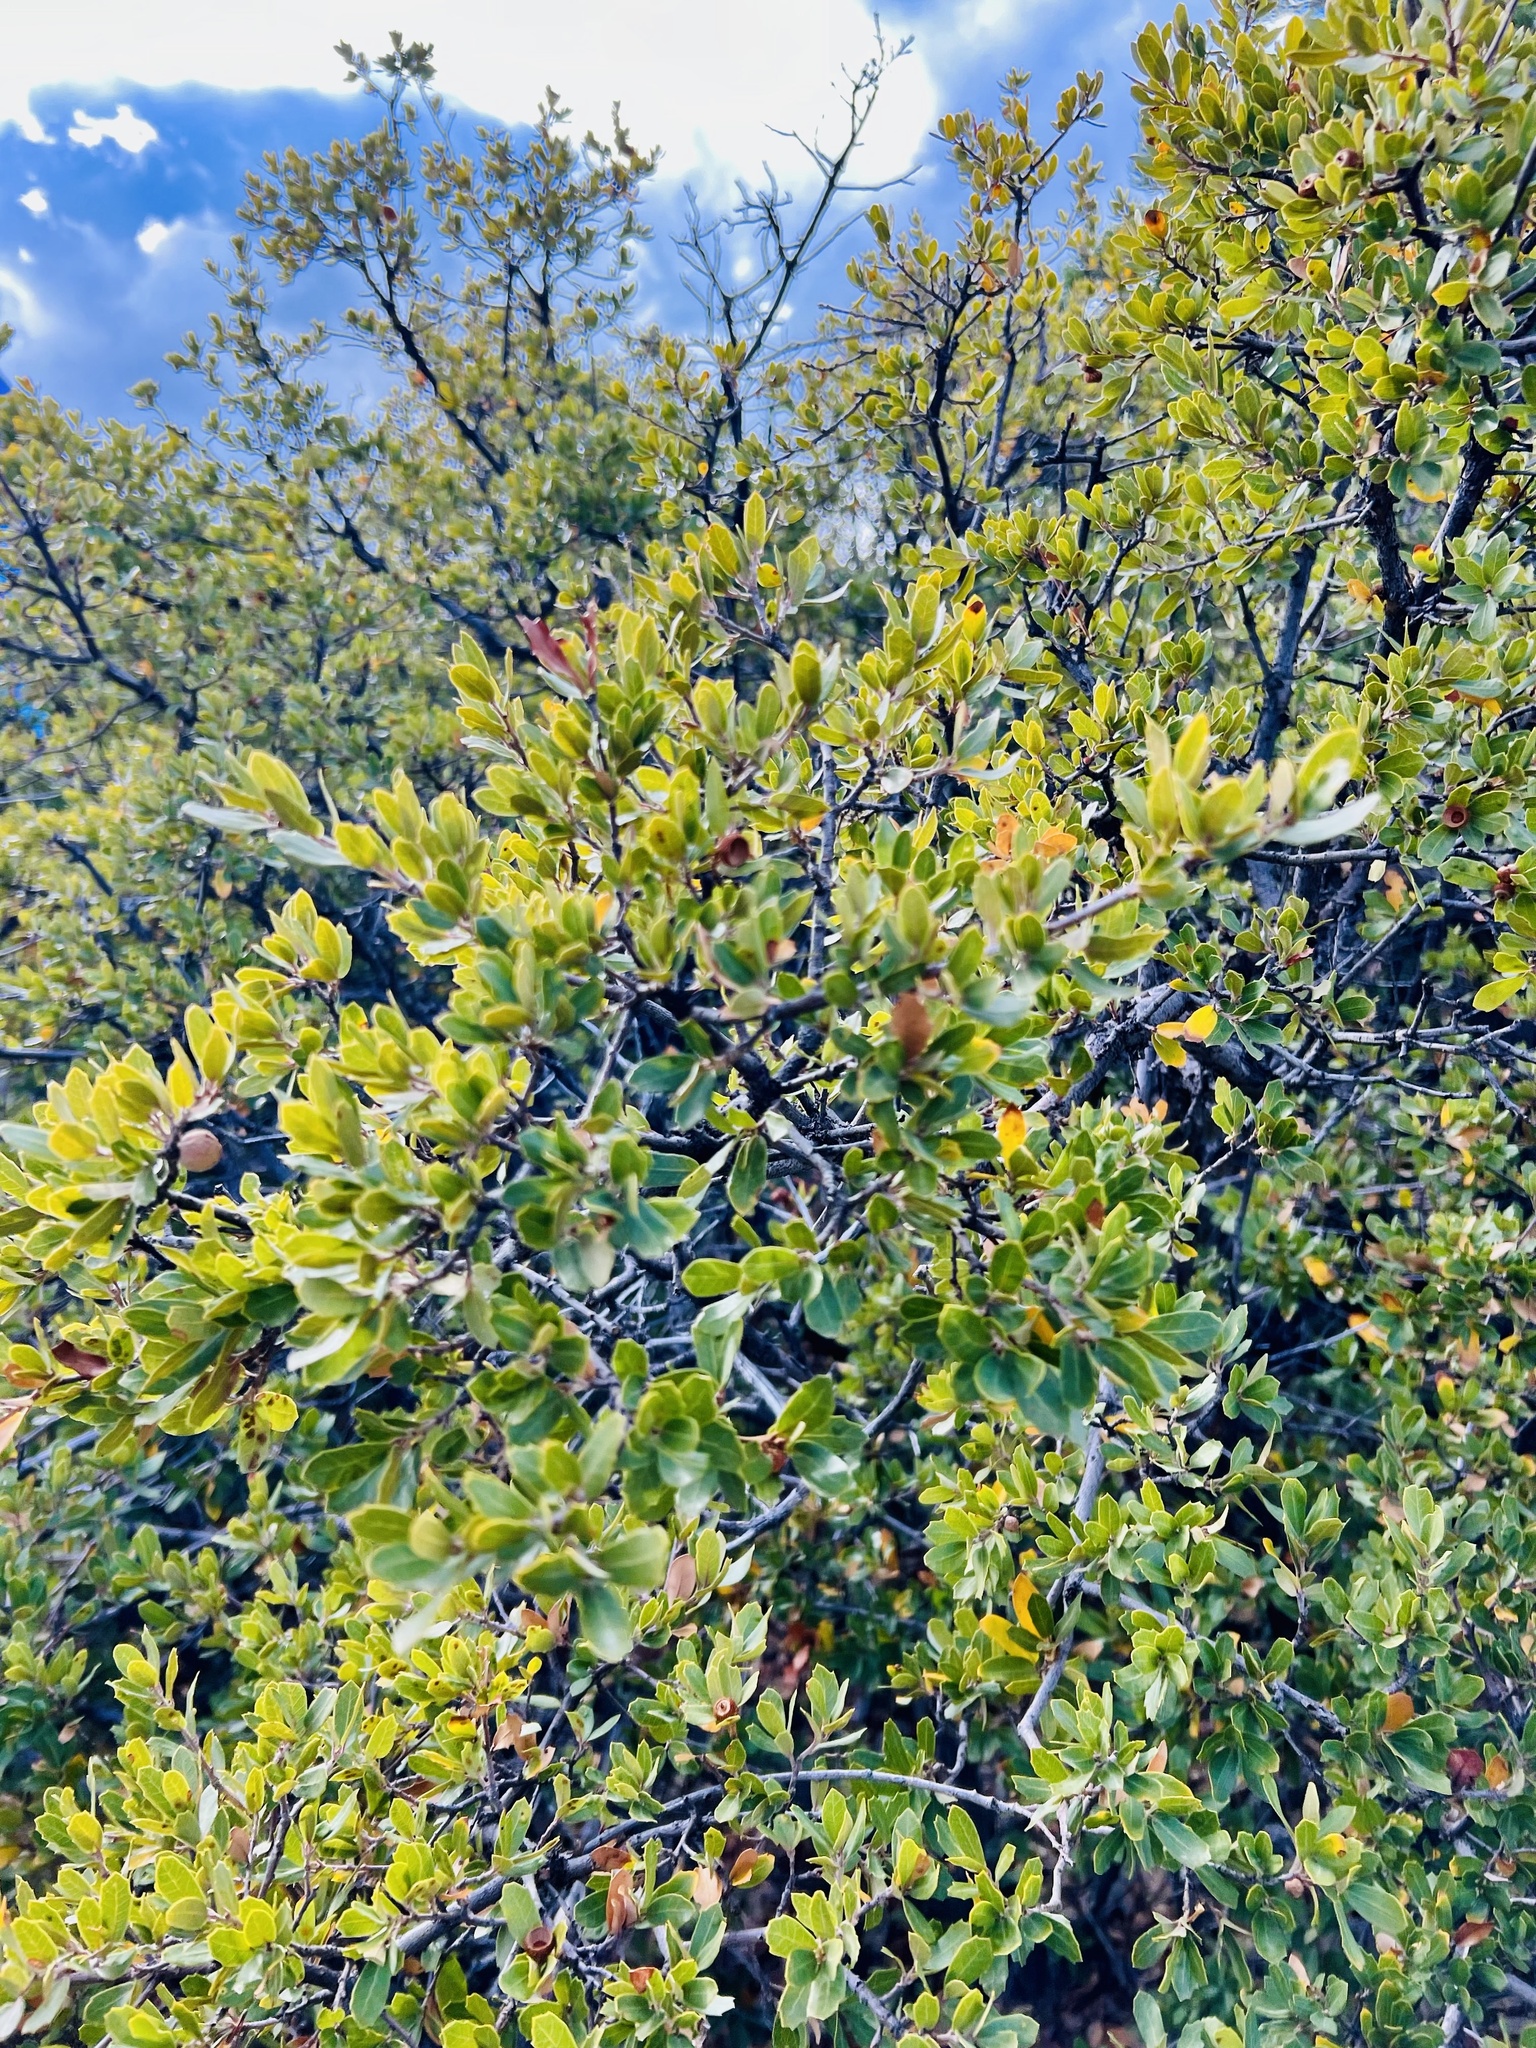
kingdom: Plantae
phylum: Tracheophyta
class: Magnoliopsida
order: Fagales
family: Fagaceae
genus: Quercus
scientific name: Quercus toumeyi
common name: Toumey oak
